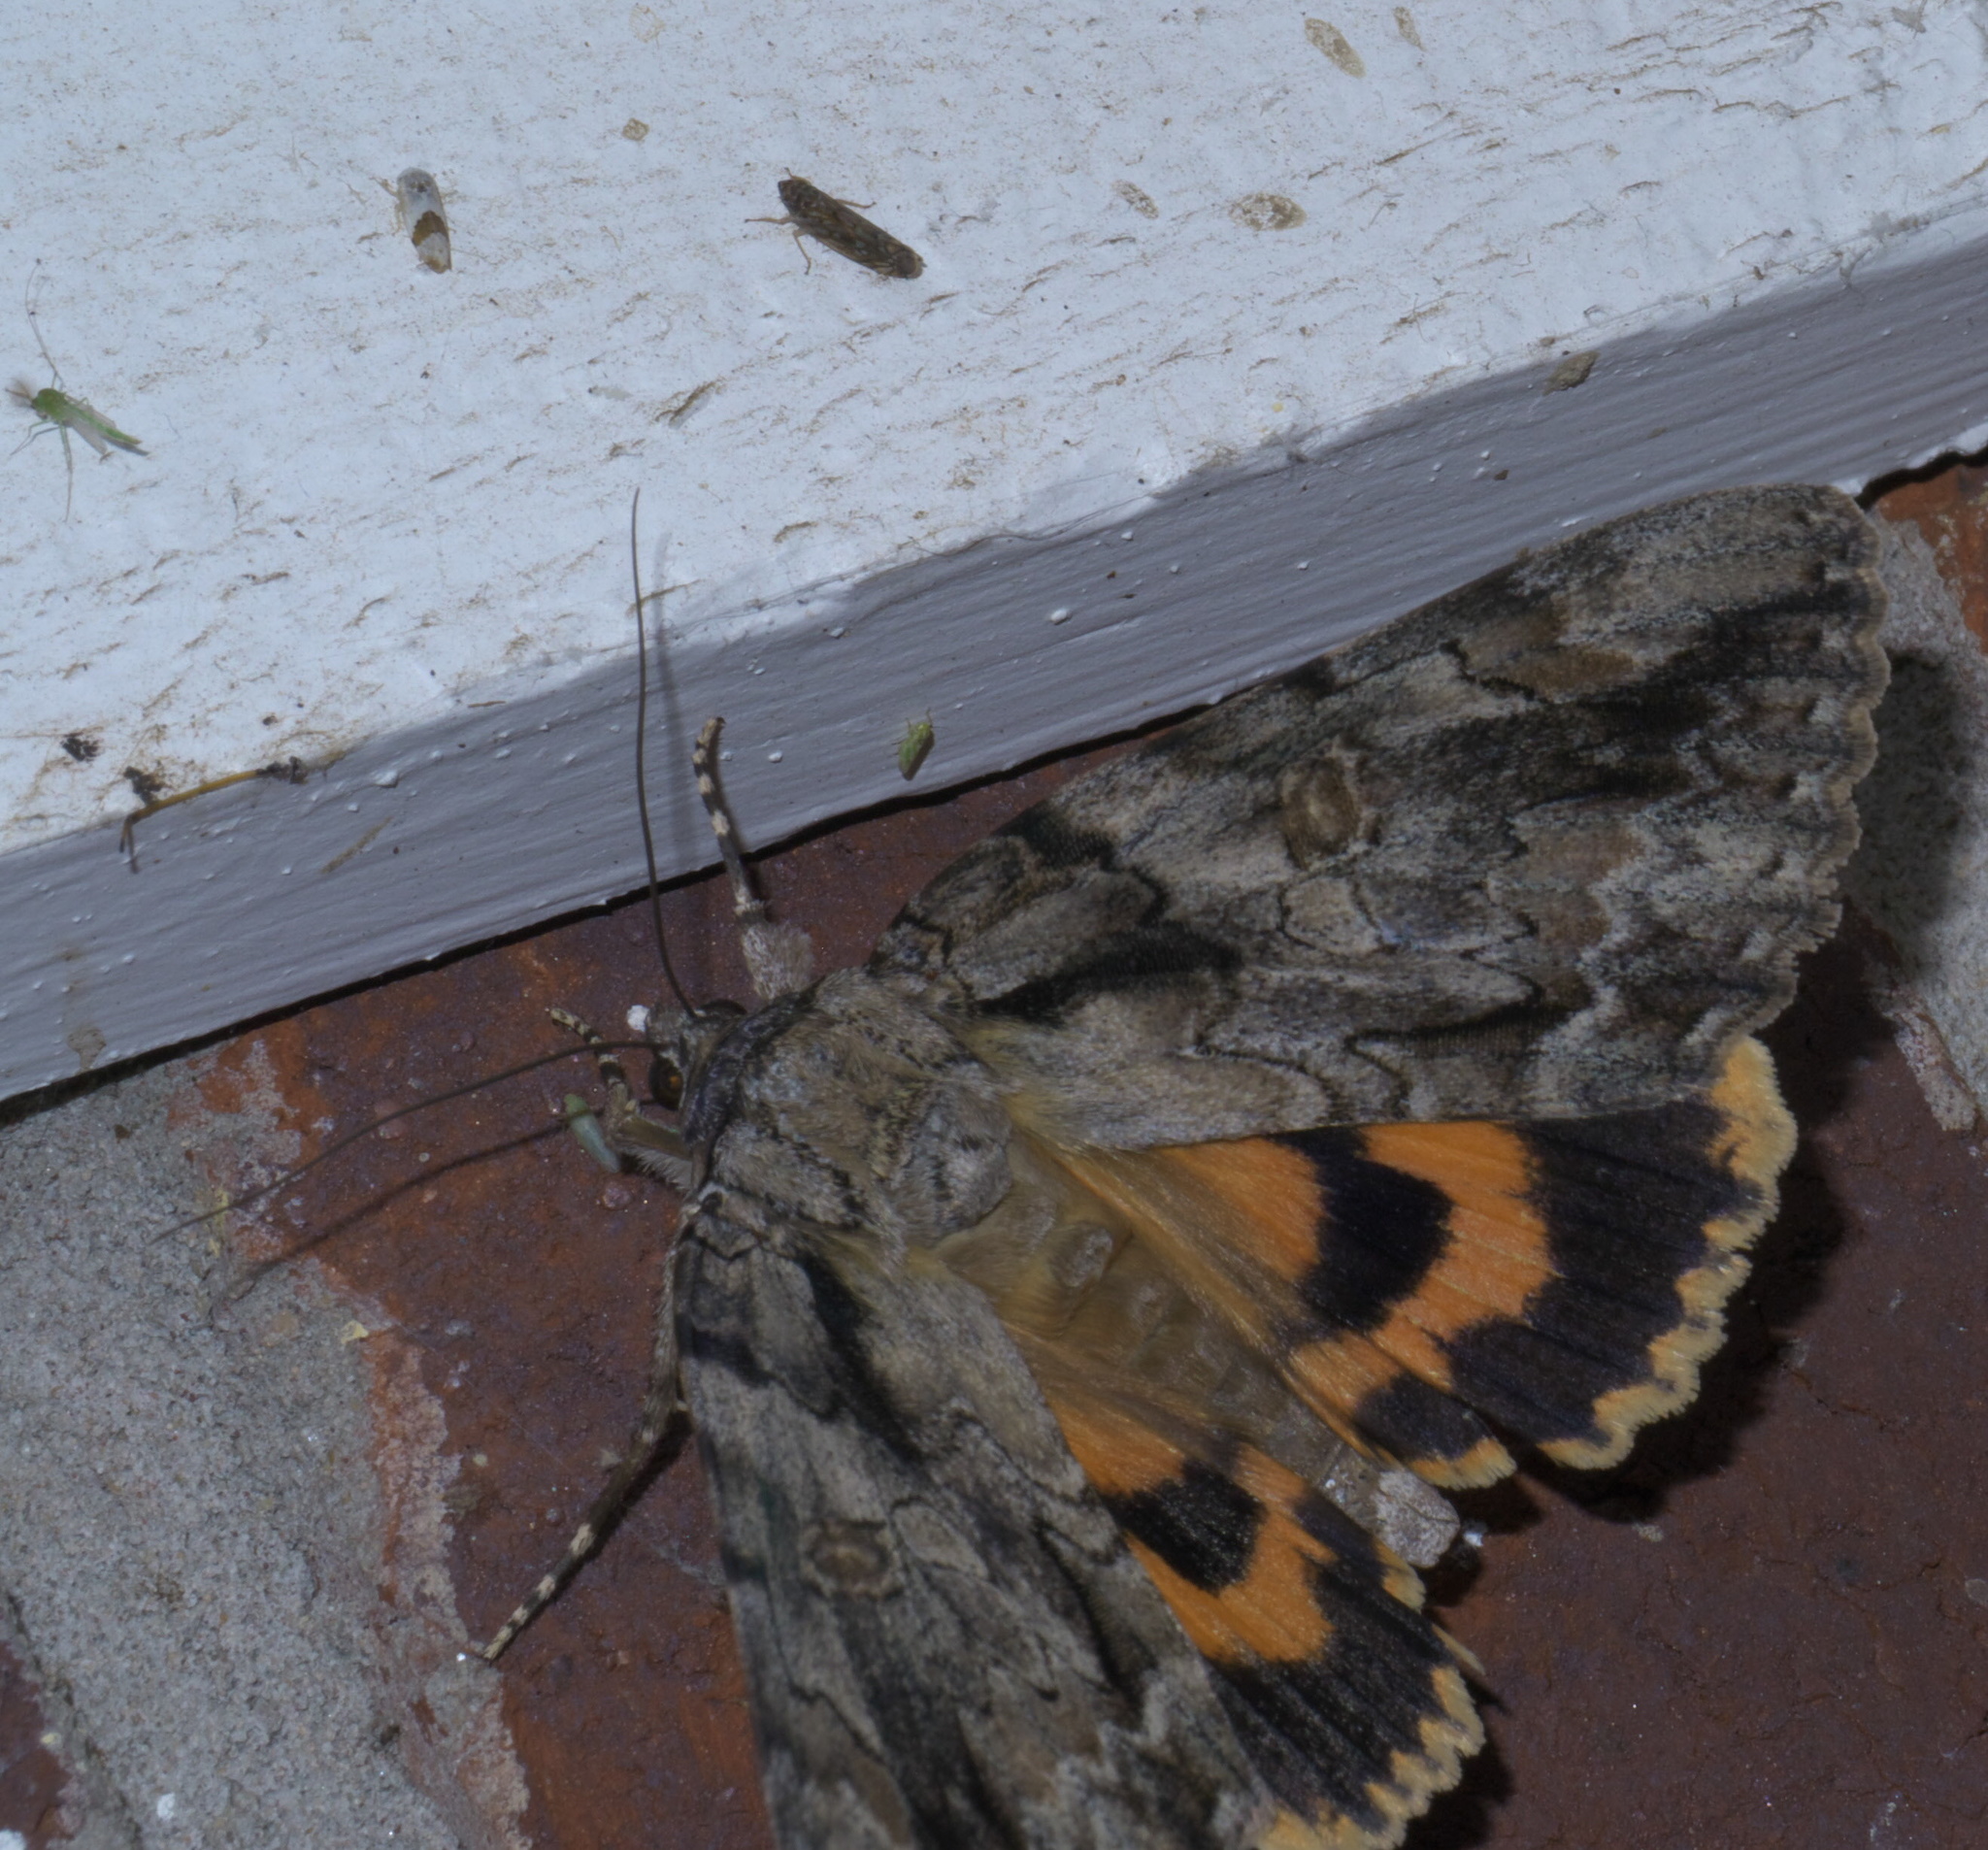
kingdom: Animalia
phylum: Arthropoda
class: Insecta
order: Lepidoptera
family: Erebidae
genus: Catocala
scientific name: Catocala neogama
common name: Bride underwing
